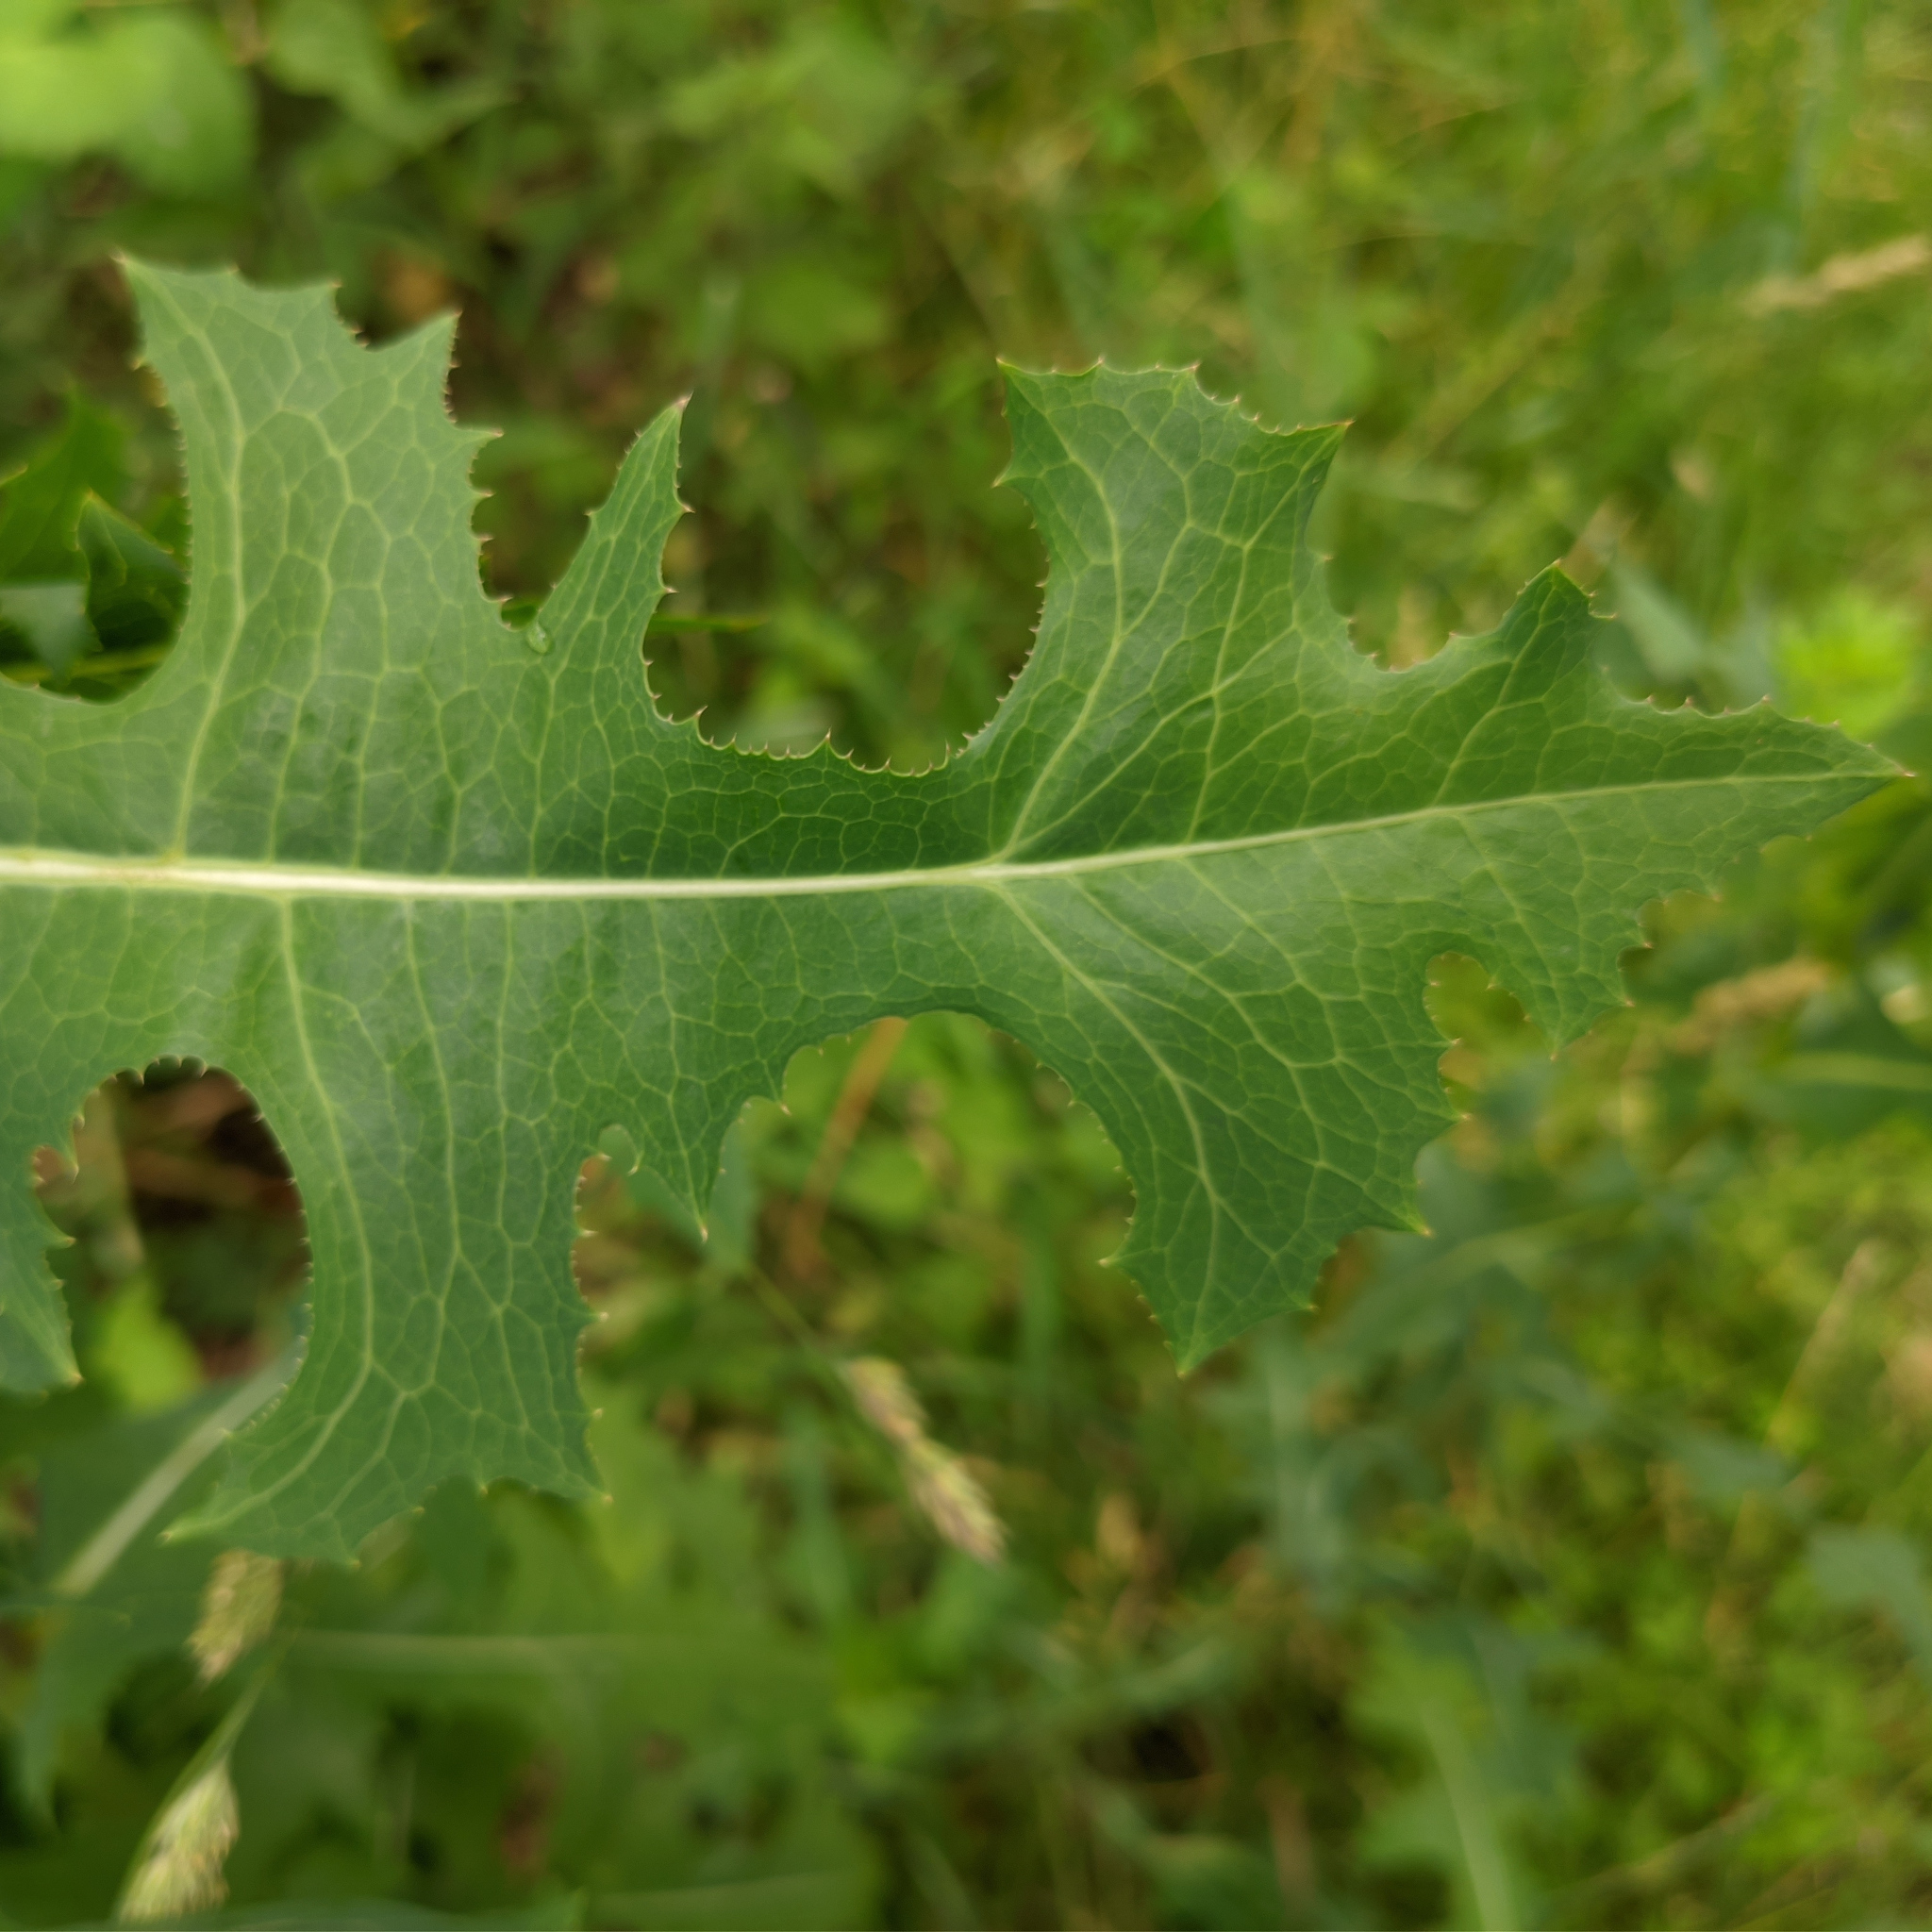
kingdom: Plantae
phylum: Tracheophyta
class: Magnoliopsida
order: Asterales
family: Asteraceae
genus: Lactuca
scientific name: Lactuca serriola
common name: Prickly lettuce
